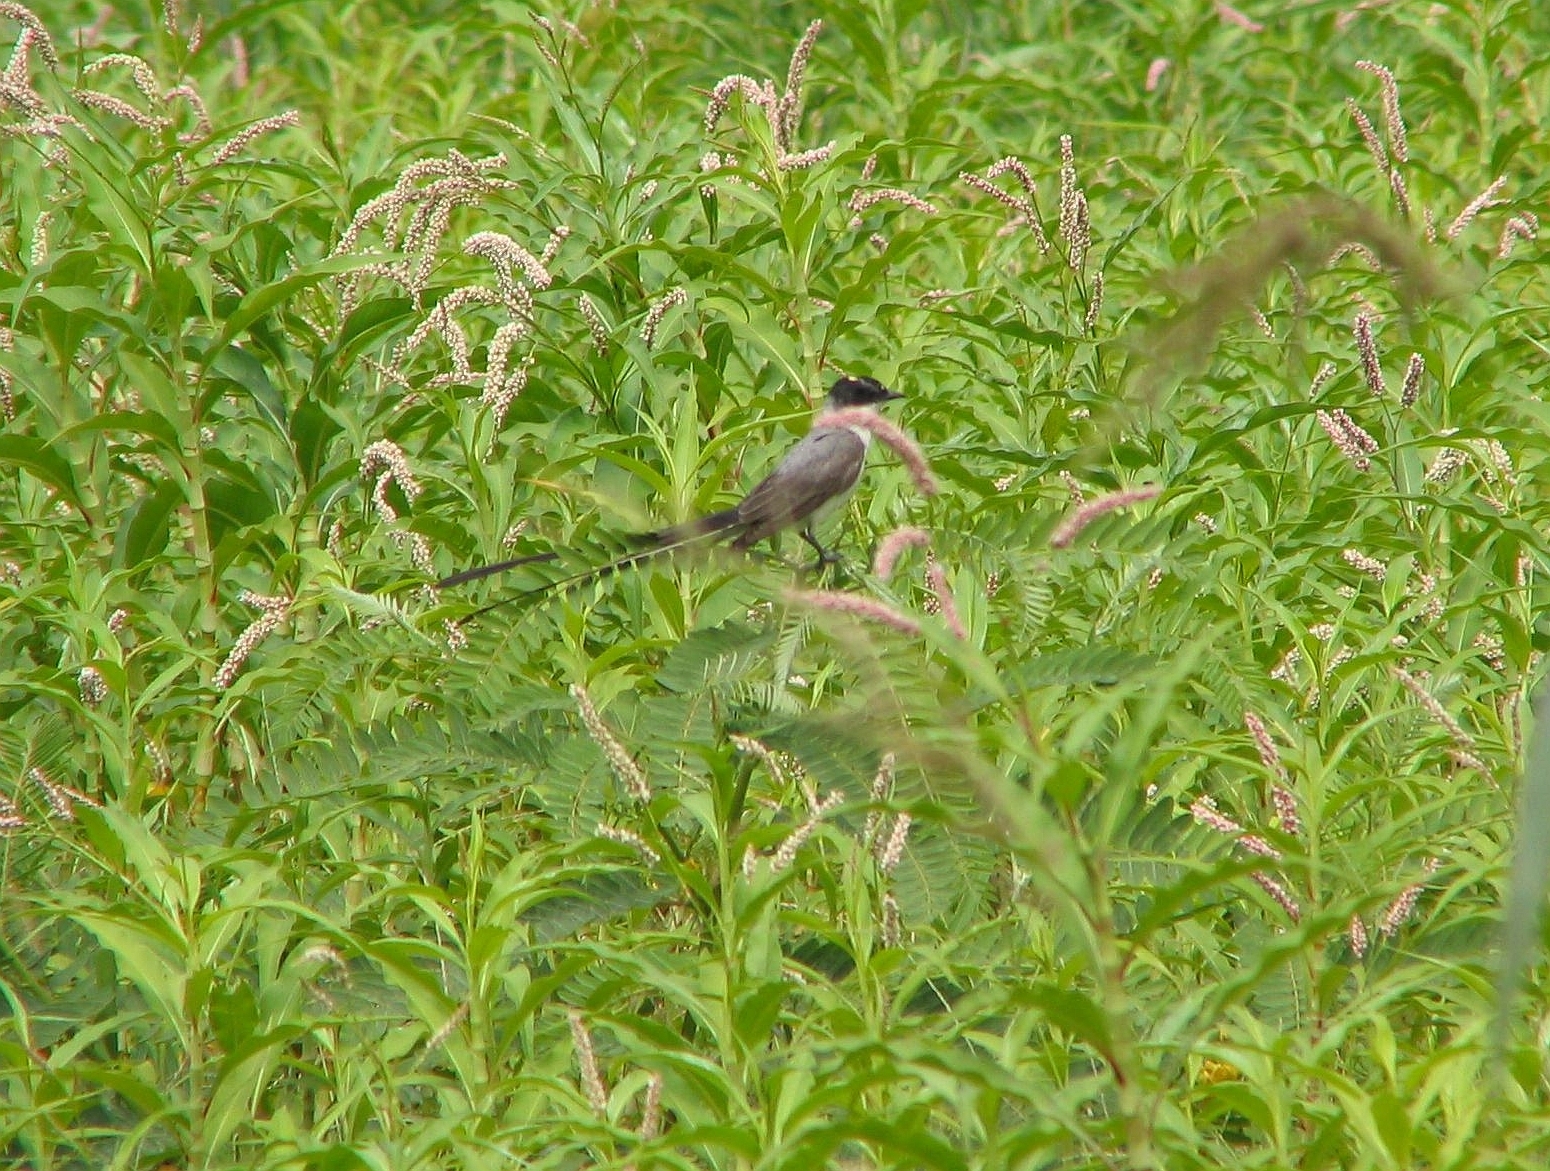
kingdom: Animalia
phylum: Chordata
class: Aves
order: Passeriformes
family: Tyrannidae
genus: Tyrannus
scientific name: Tyrannus savana
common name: Fork-tailed flycatcher
